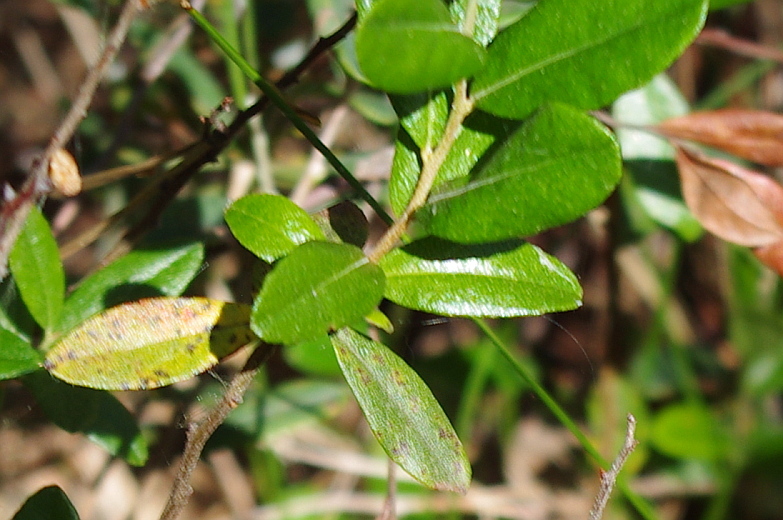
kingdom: Plantae
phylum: Tracheophyta
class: Magnoliopsida
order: Ericales
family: Ericaceae
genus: Vaccinium
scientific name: Vaccinium vitis-idaea
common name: Cowberry
